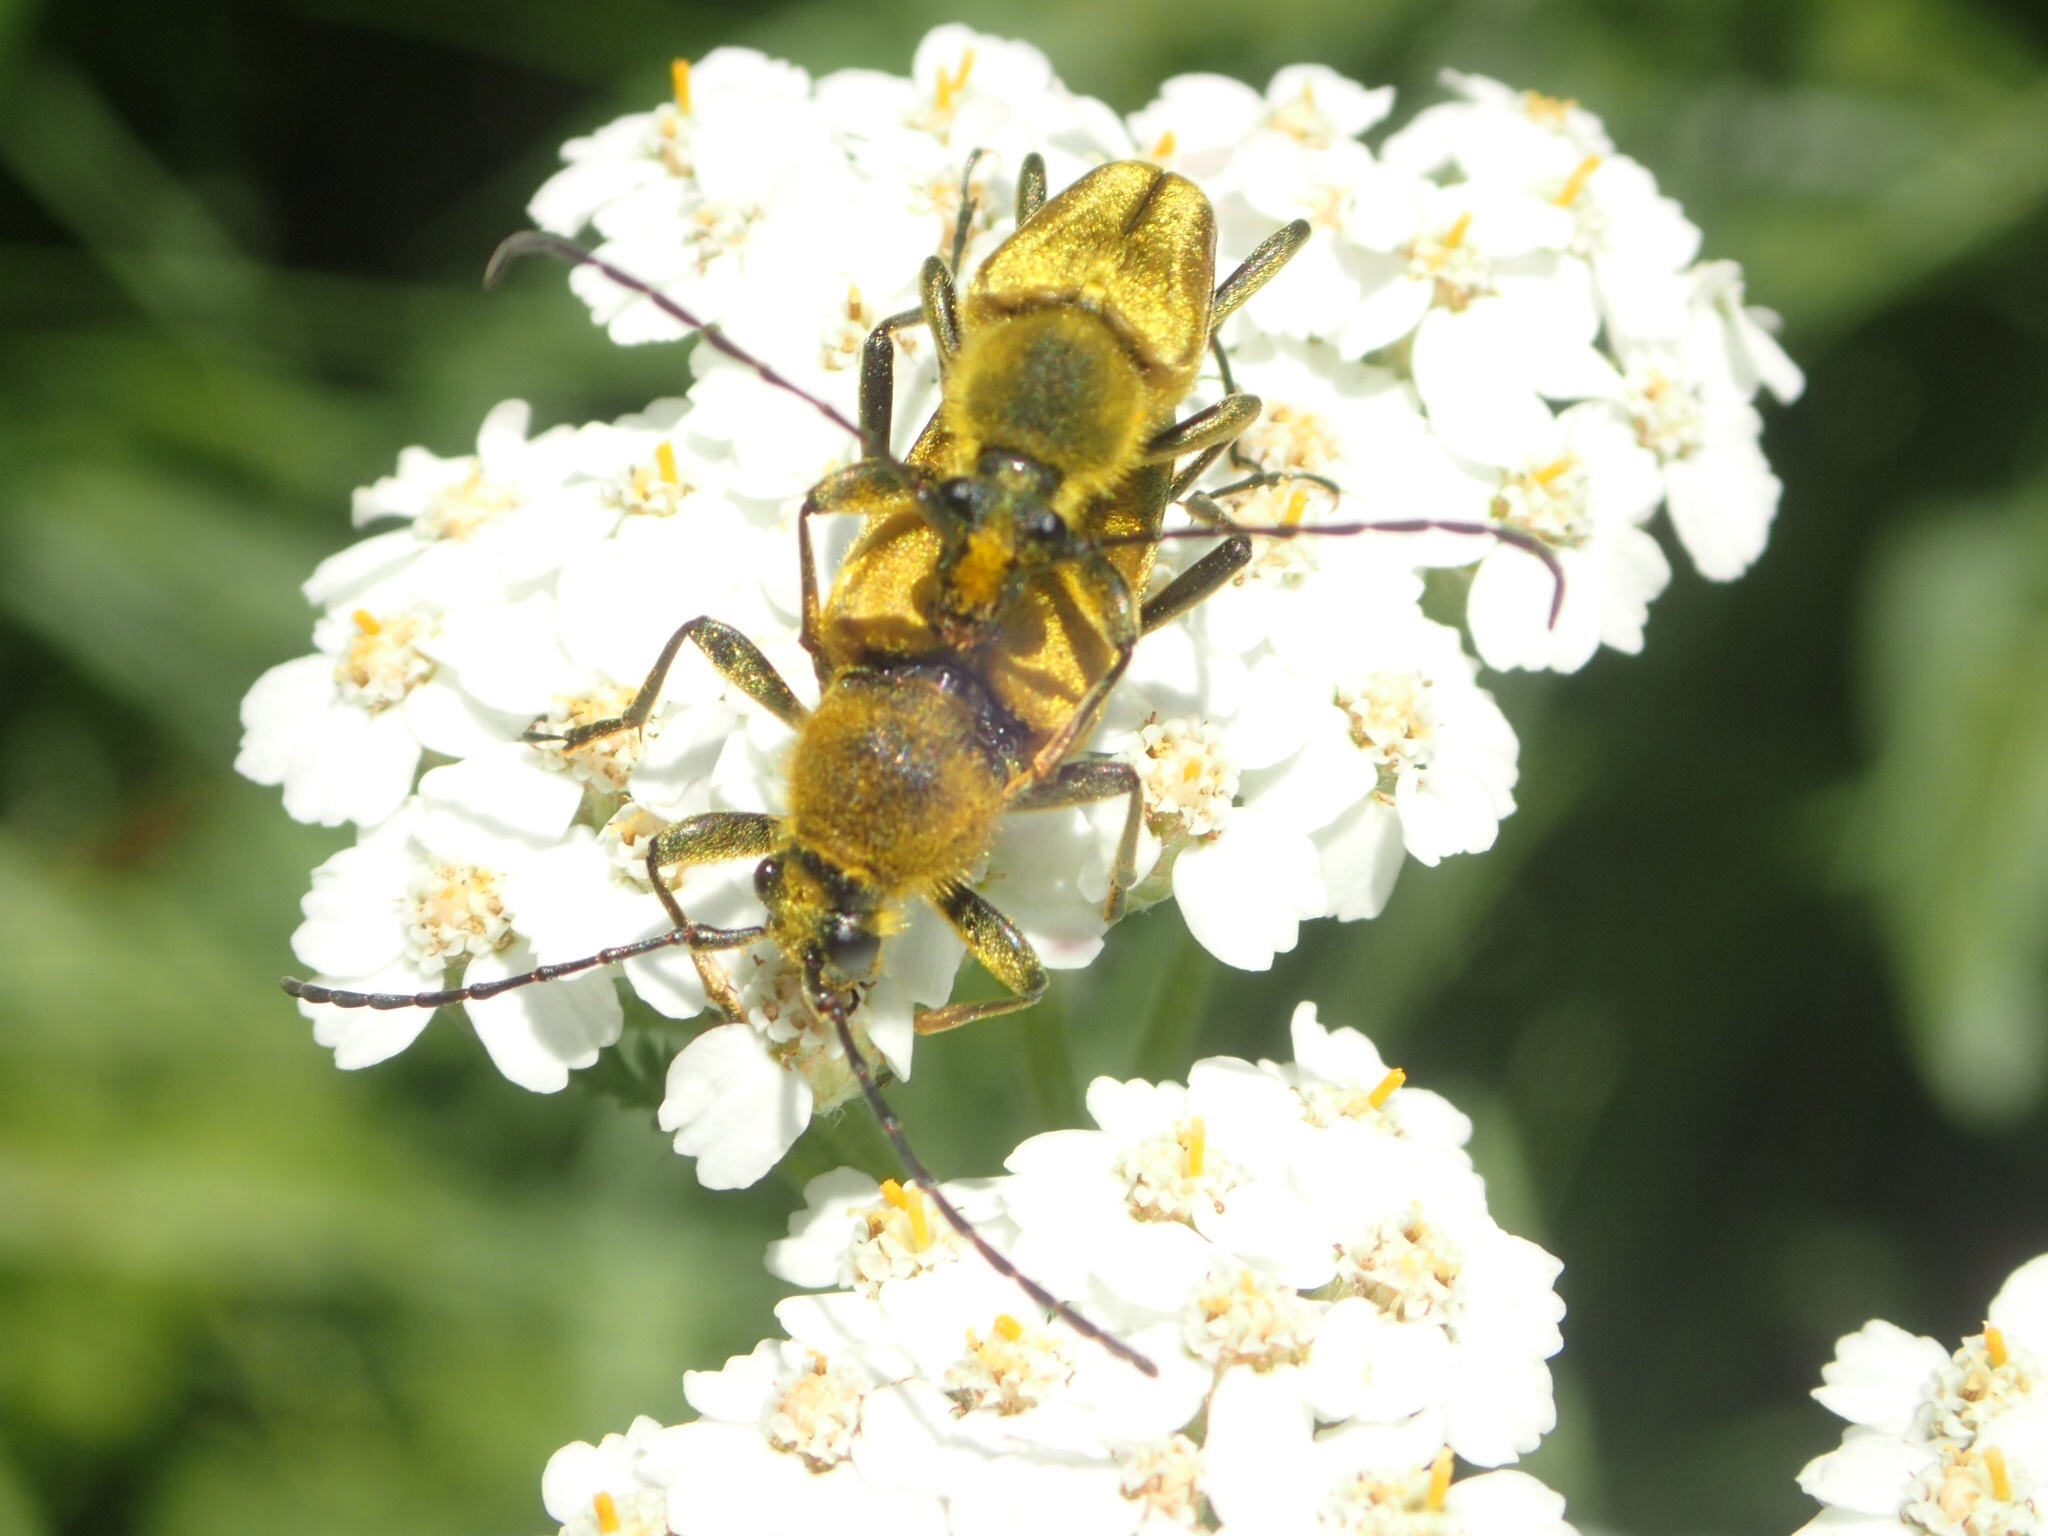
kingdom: Animalia
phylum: Arthropoda
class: Insecta
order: Coleoptera
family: Cerambycidae
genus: Cosmosalia
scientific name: Cosmosalia chrysocoma
